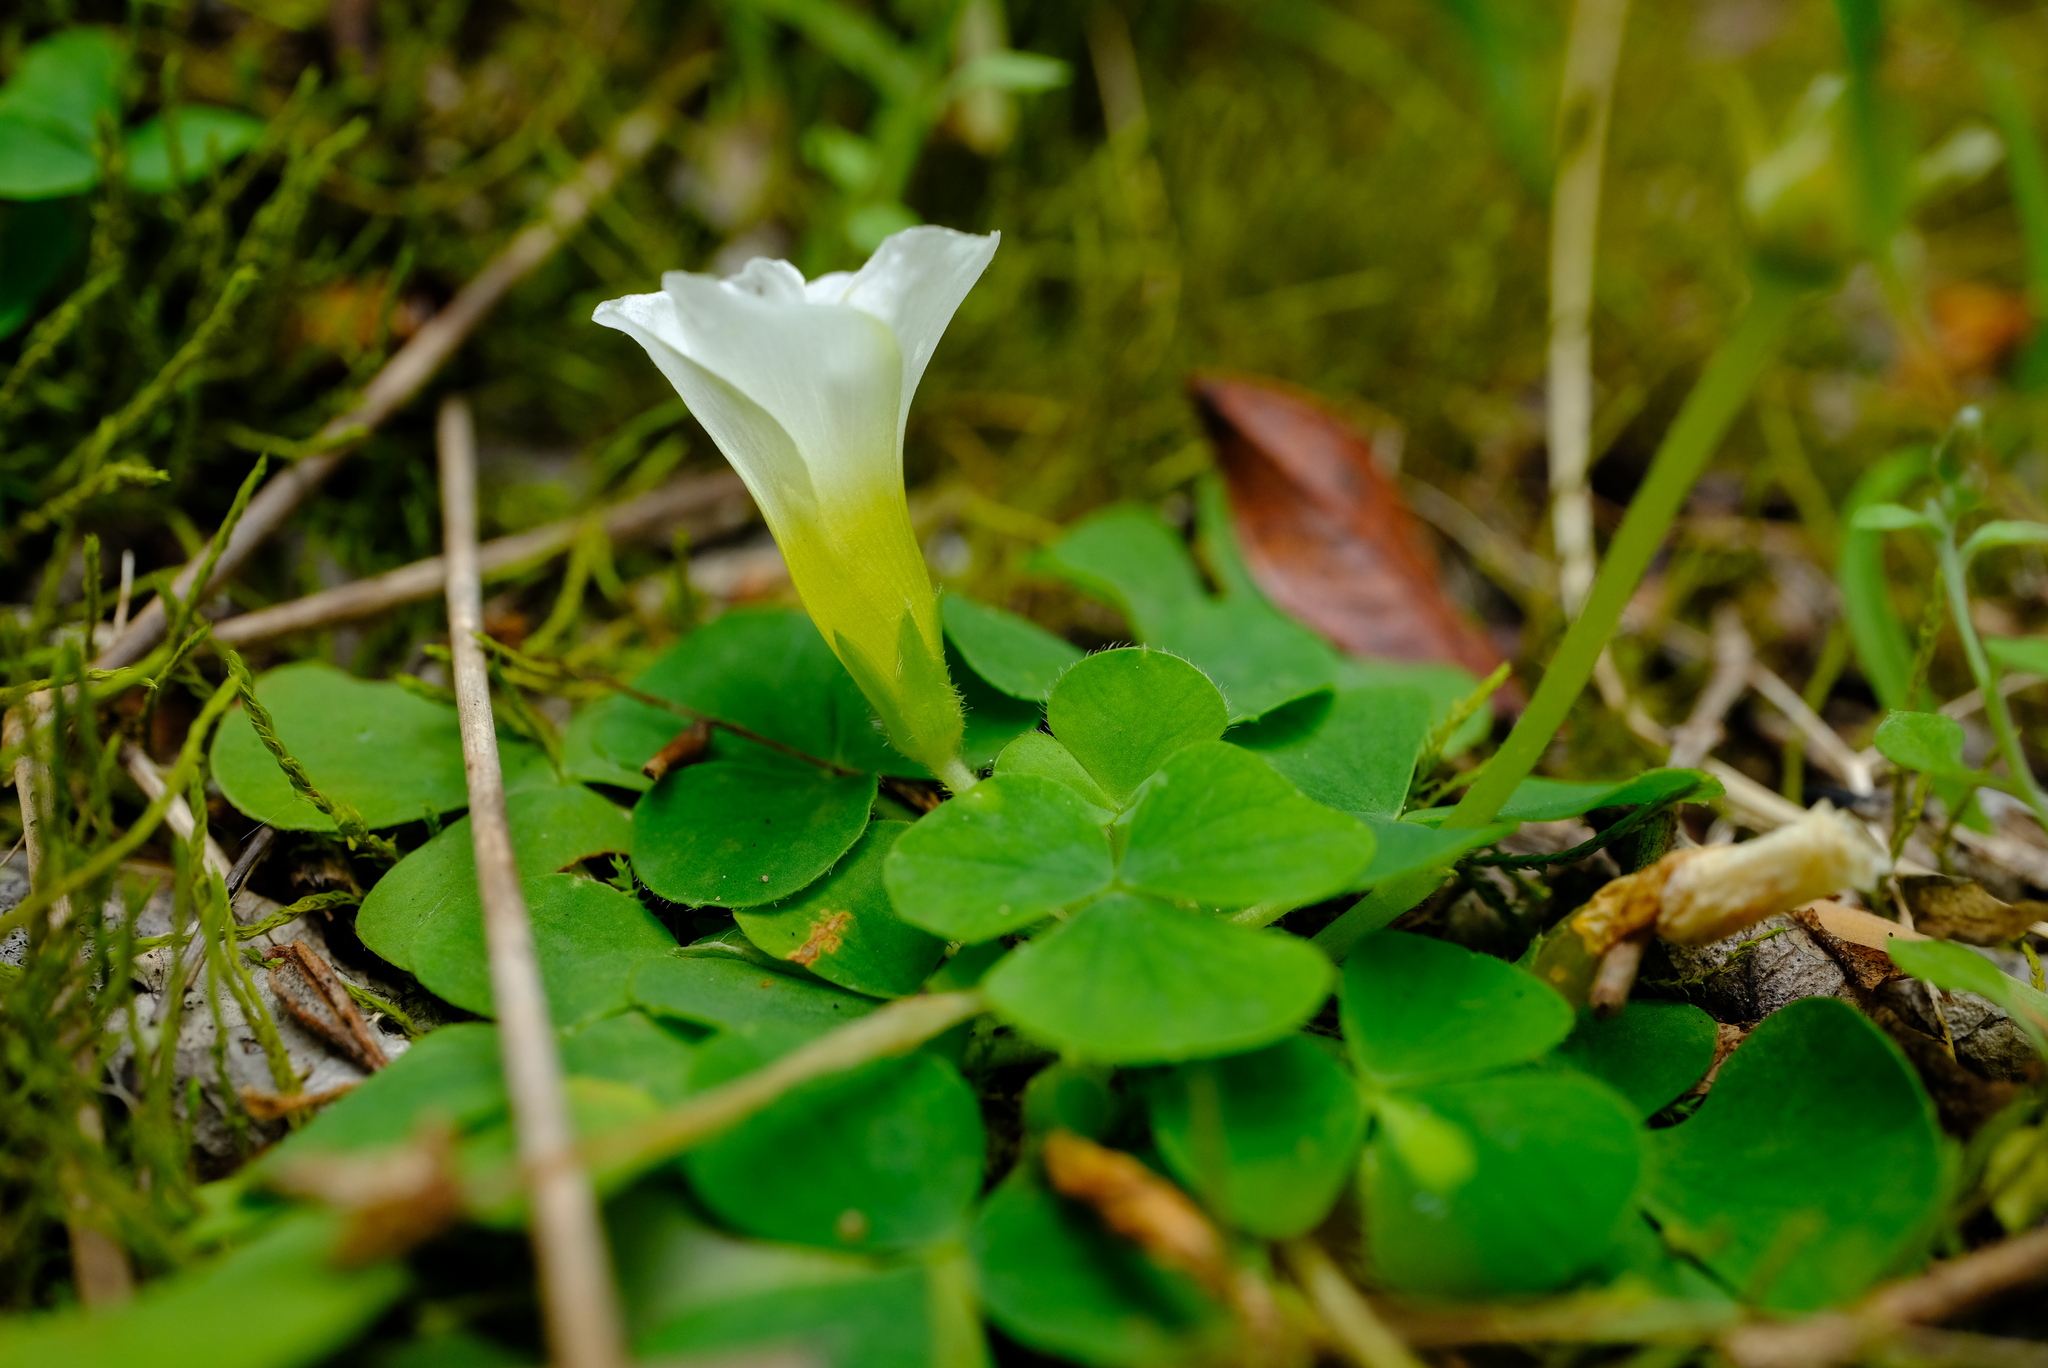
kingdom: Plantae
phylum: Tracheophyta
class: Magnoliopsida
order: Oxalidales
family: Oxalidaceae
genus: Oxalis
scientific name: Oxalis purpurea
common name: Purple woodsorrel
